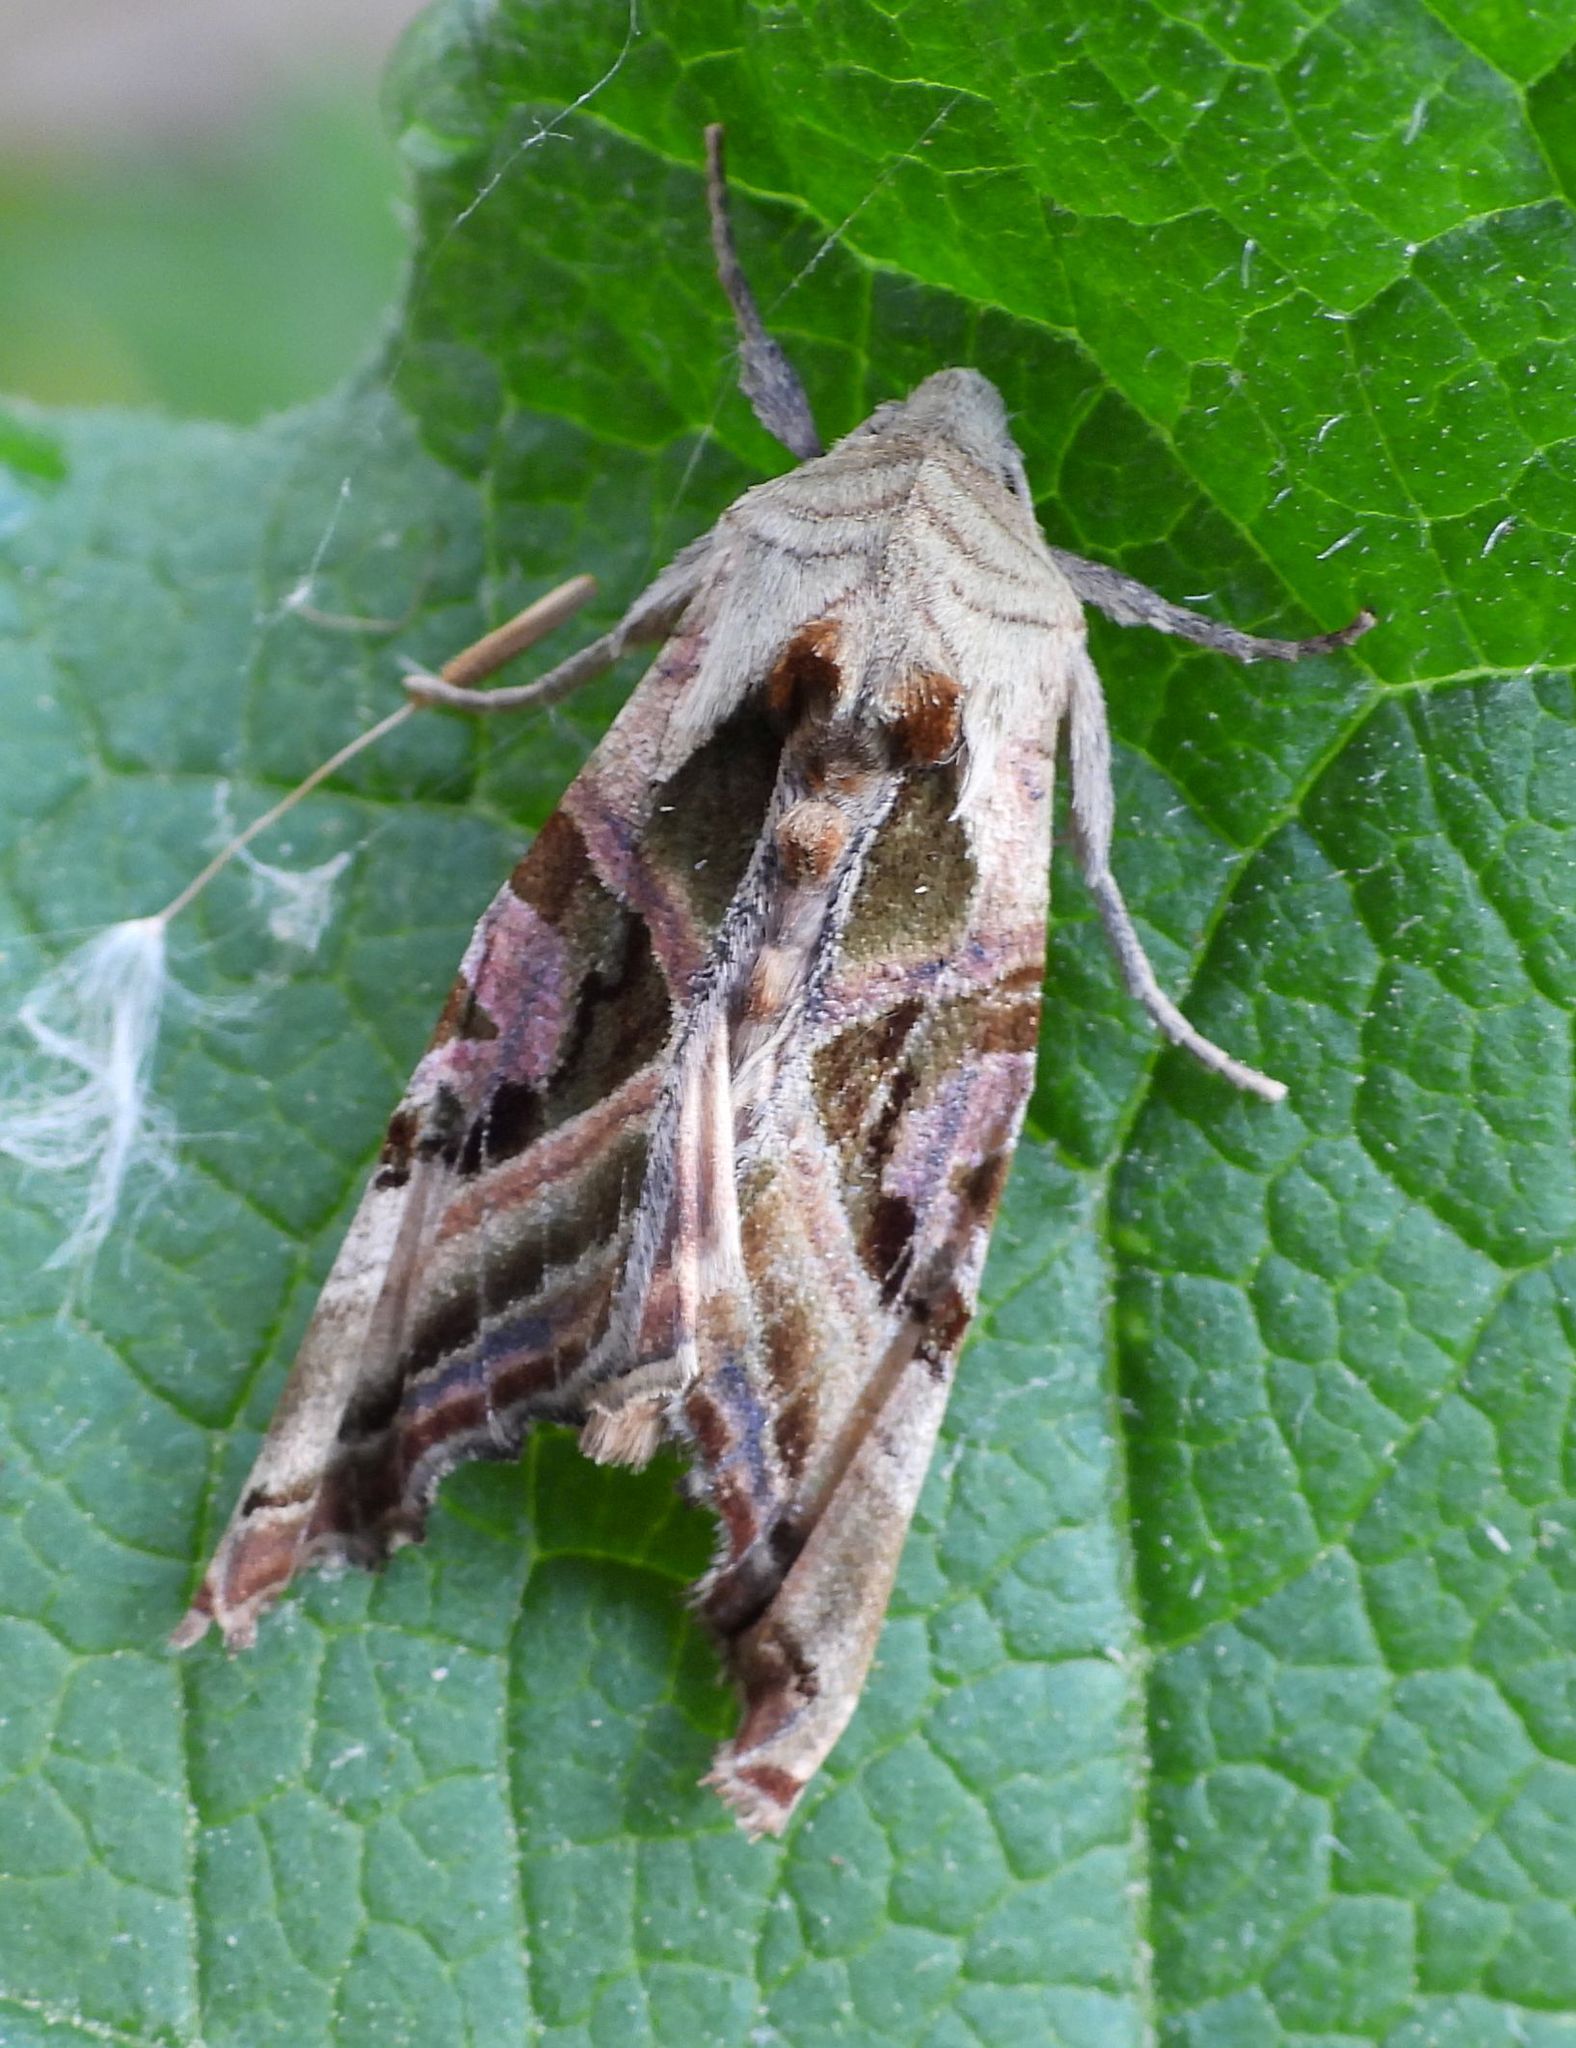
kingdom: Animalia
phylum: Arthropoda
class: Insecta
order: Lepidoptera
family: Noctuidae
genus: Phlogophora
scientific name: Phlogophora iris
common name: Olive angle shades
